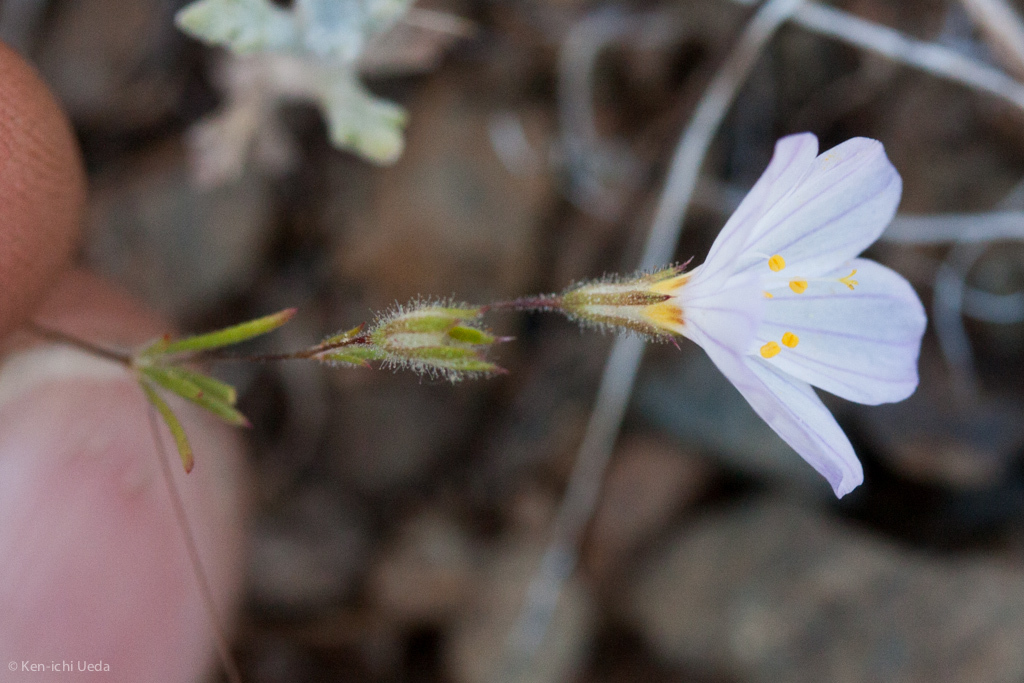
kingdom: Plantae
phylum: Tracheophyta
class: Magnoliopsida
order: Ericales
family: Polemoniaceae
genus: Leptosiphon
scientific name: Leptosiphon liniflorus
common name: Narrowflower flaxflower
